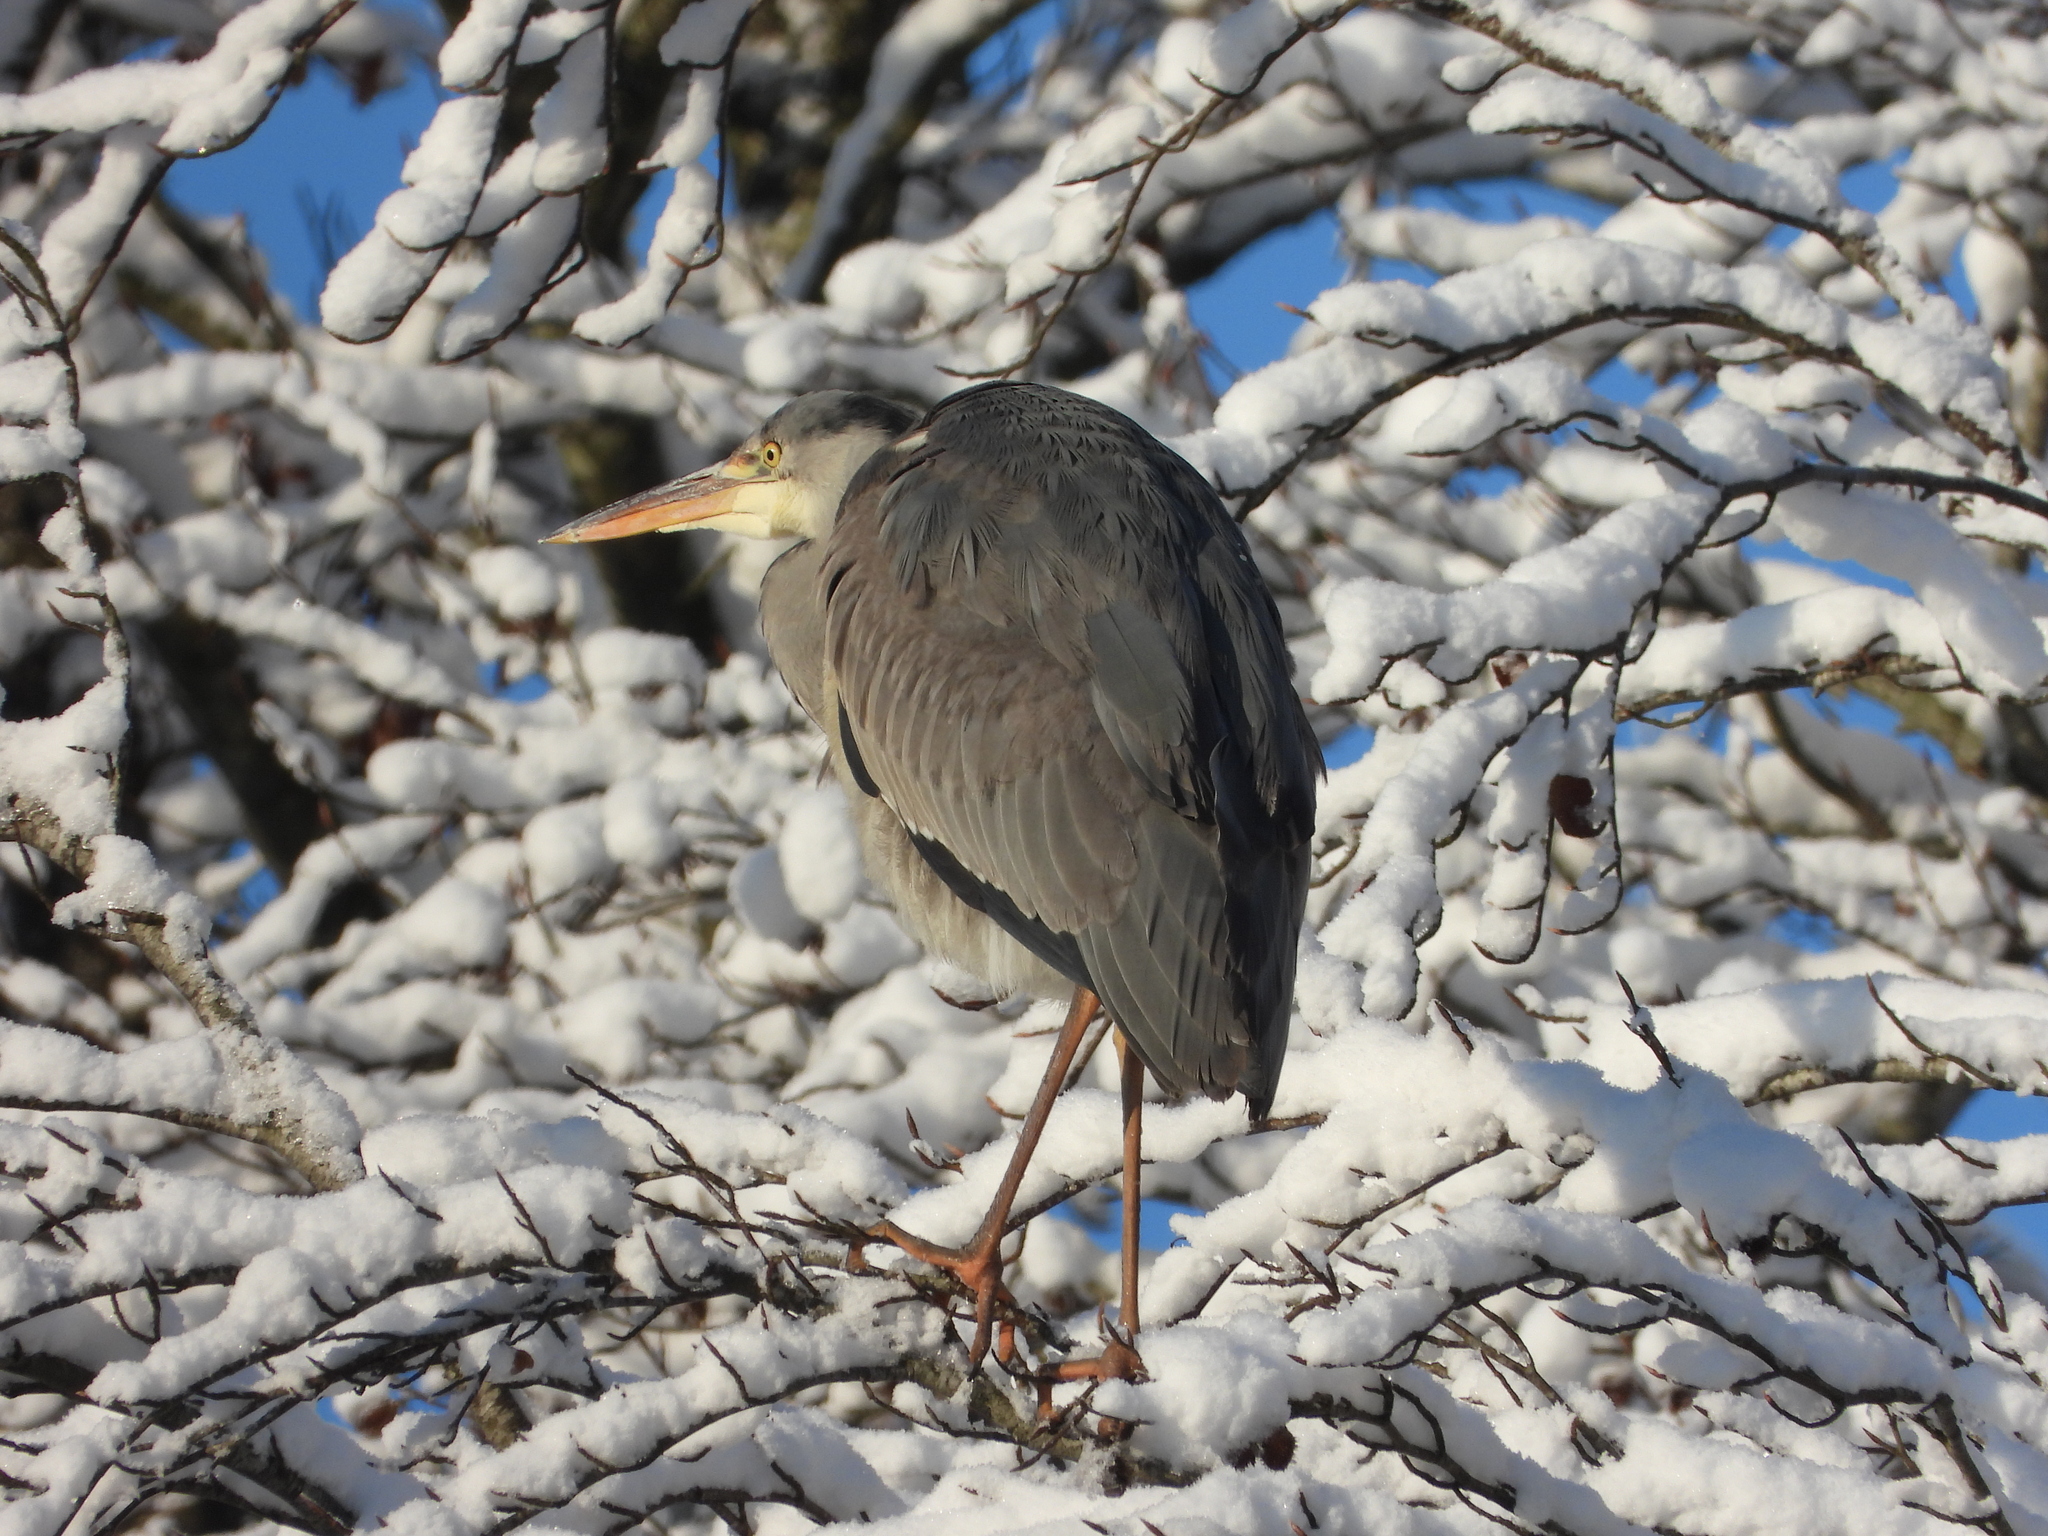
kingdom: Animalia
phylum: Chordata
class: Aves
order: Pelecaniformes
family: Ardeidae
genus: Ardea
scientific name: Ardea cinerea
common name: Grey heron
